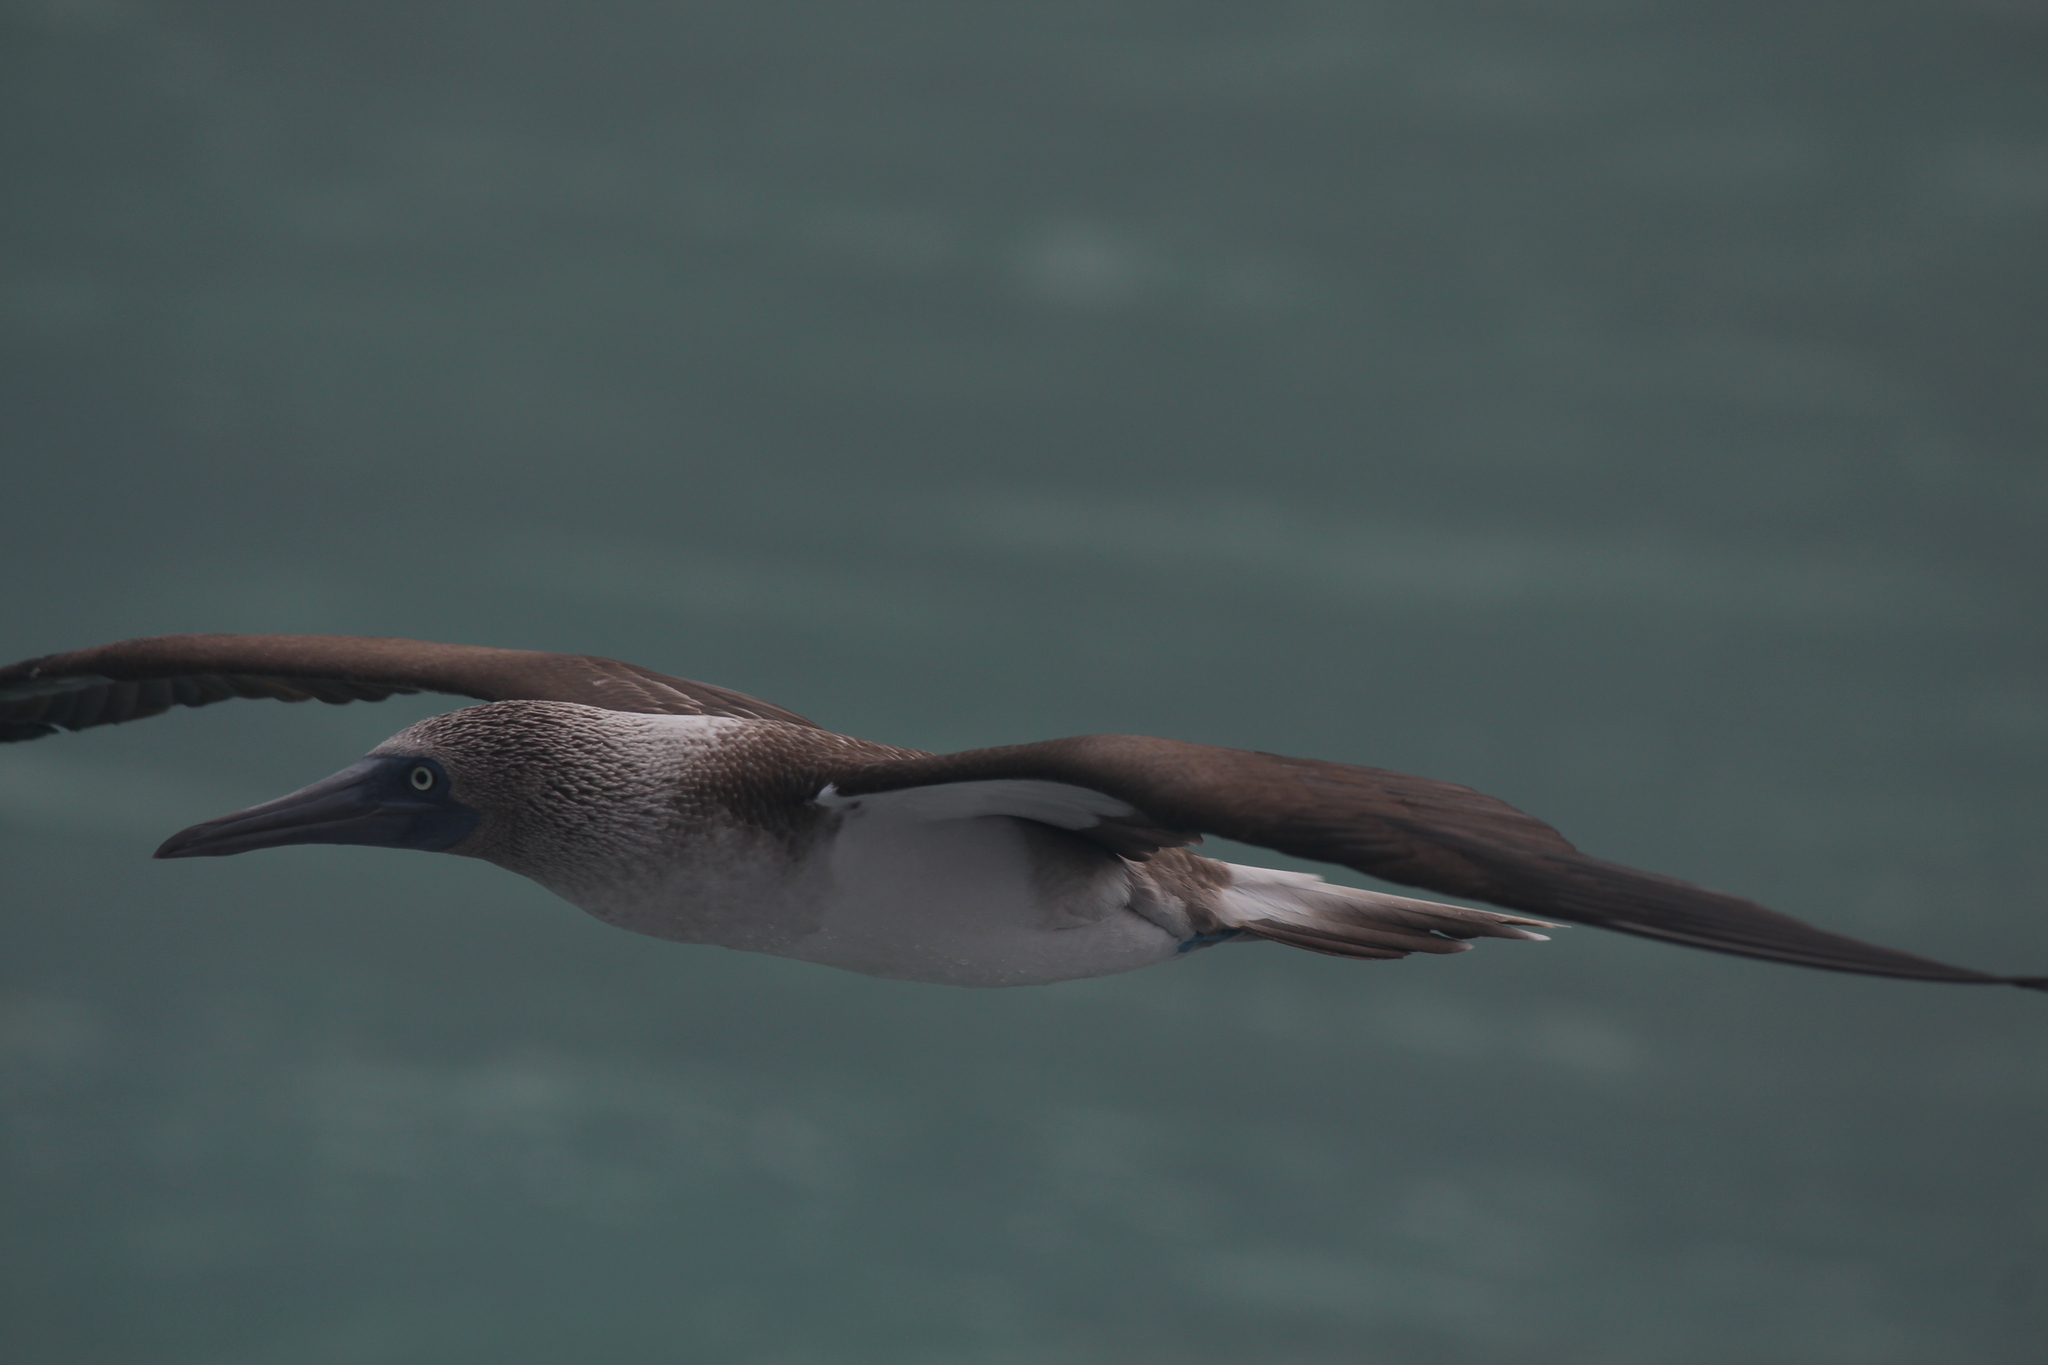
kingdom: Animalia
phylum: Chordata
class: Aves
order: Suliformes
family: Sulidae
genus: Sula
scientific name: Sula nebouxii
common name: Blue-footed booby
